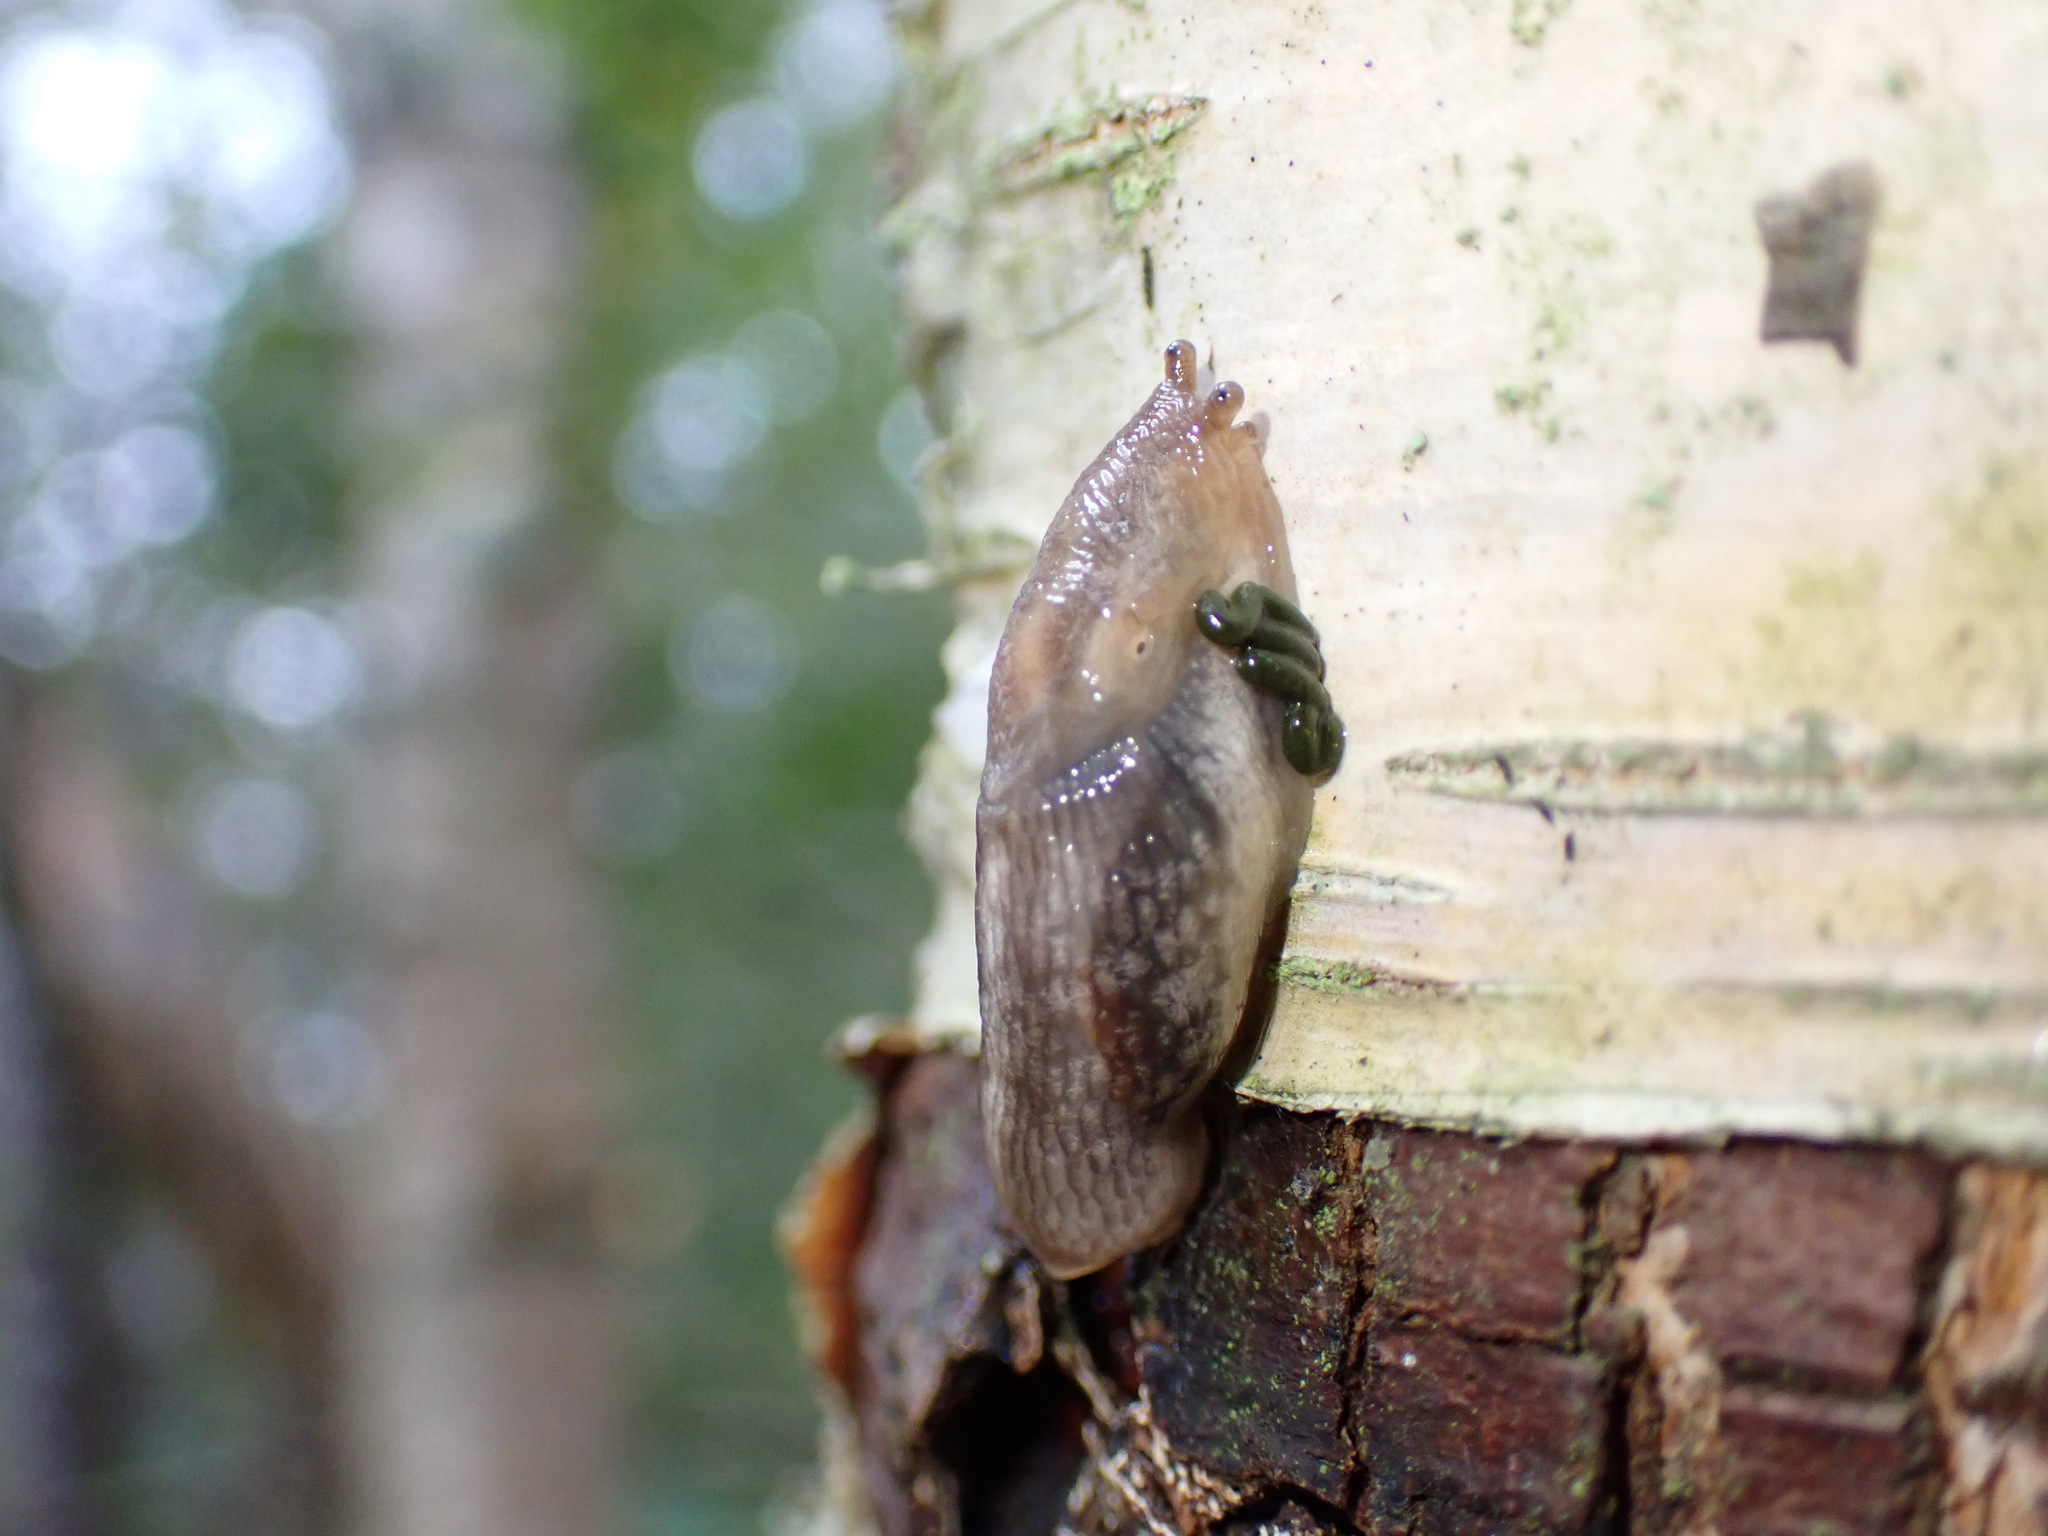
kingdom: Animalia
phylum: Mollusca
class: Gastropoda
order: Stylommatophora
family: Limacidae
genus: Lehmannia
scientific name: Lehmannia marginata
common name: Tree slug
